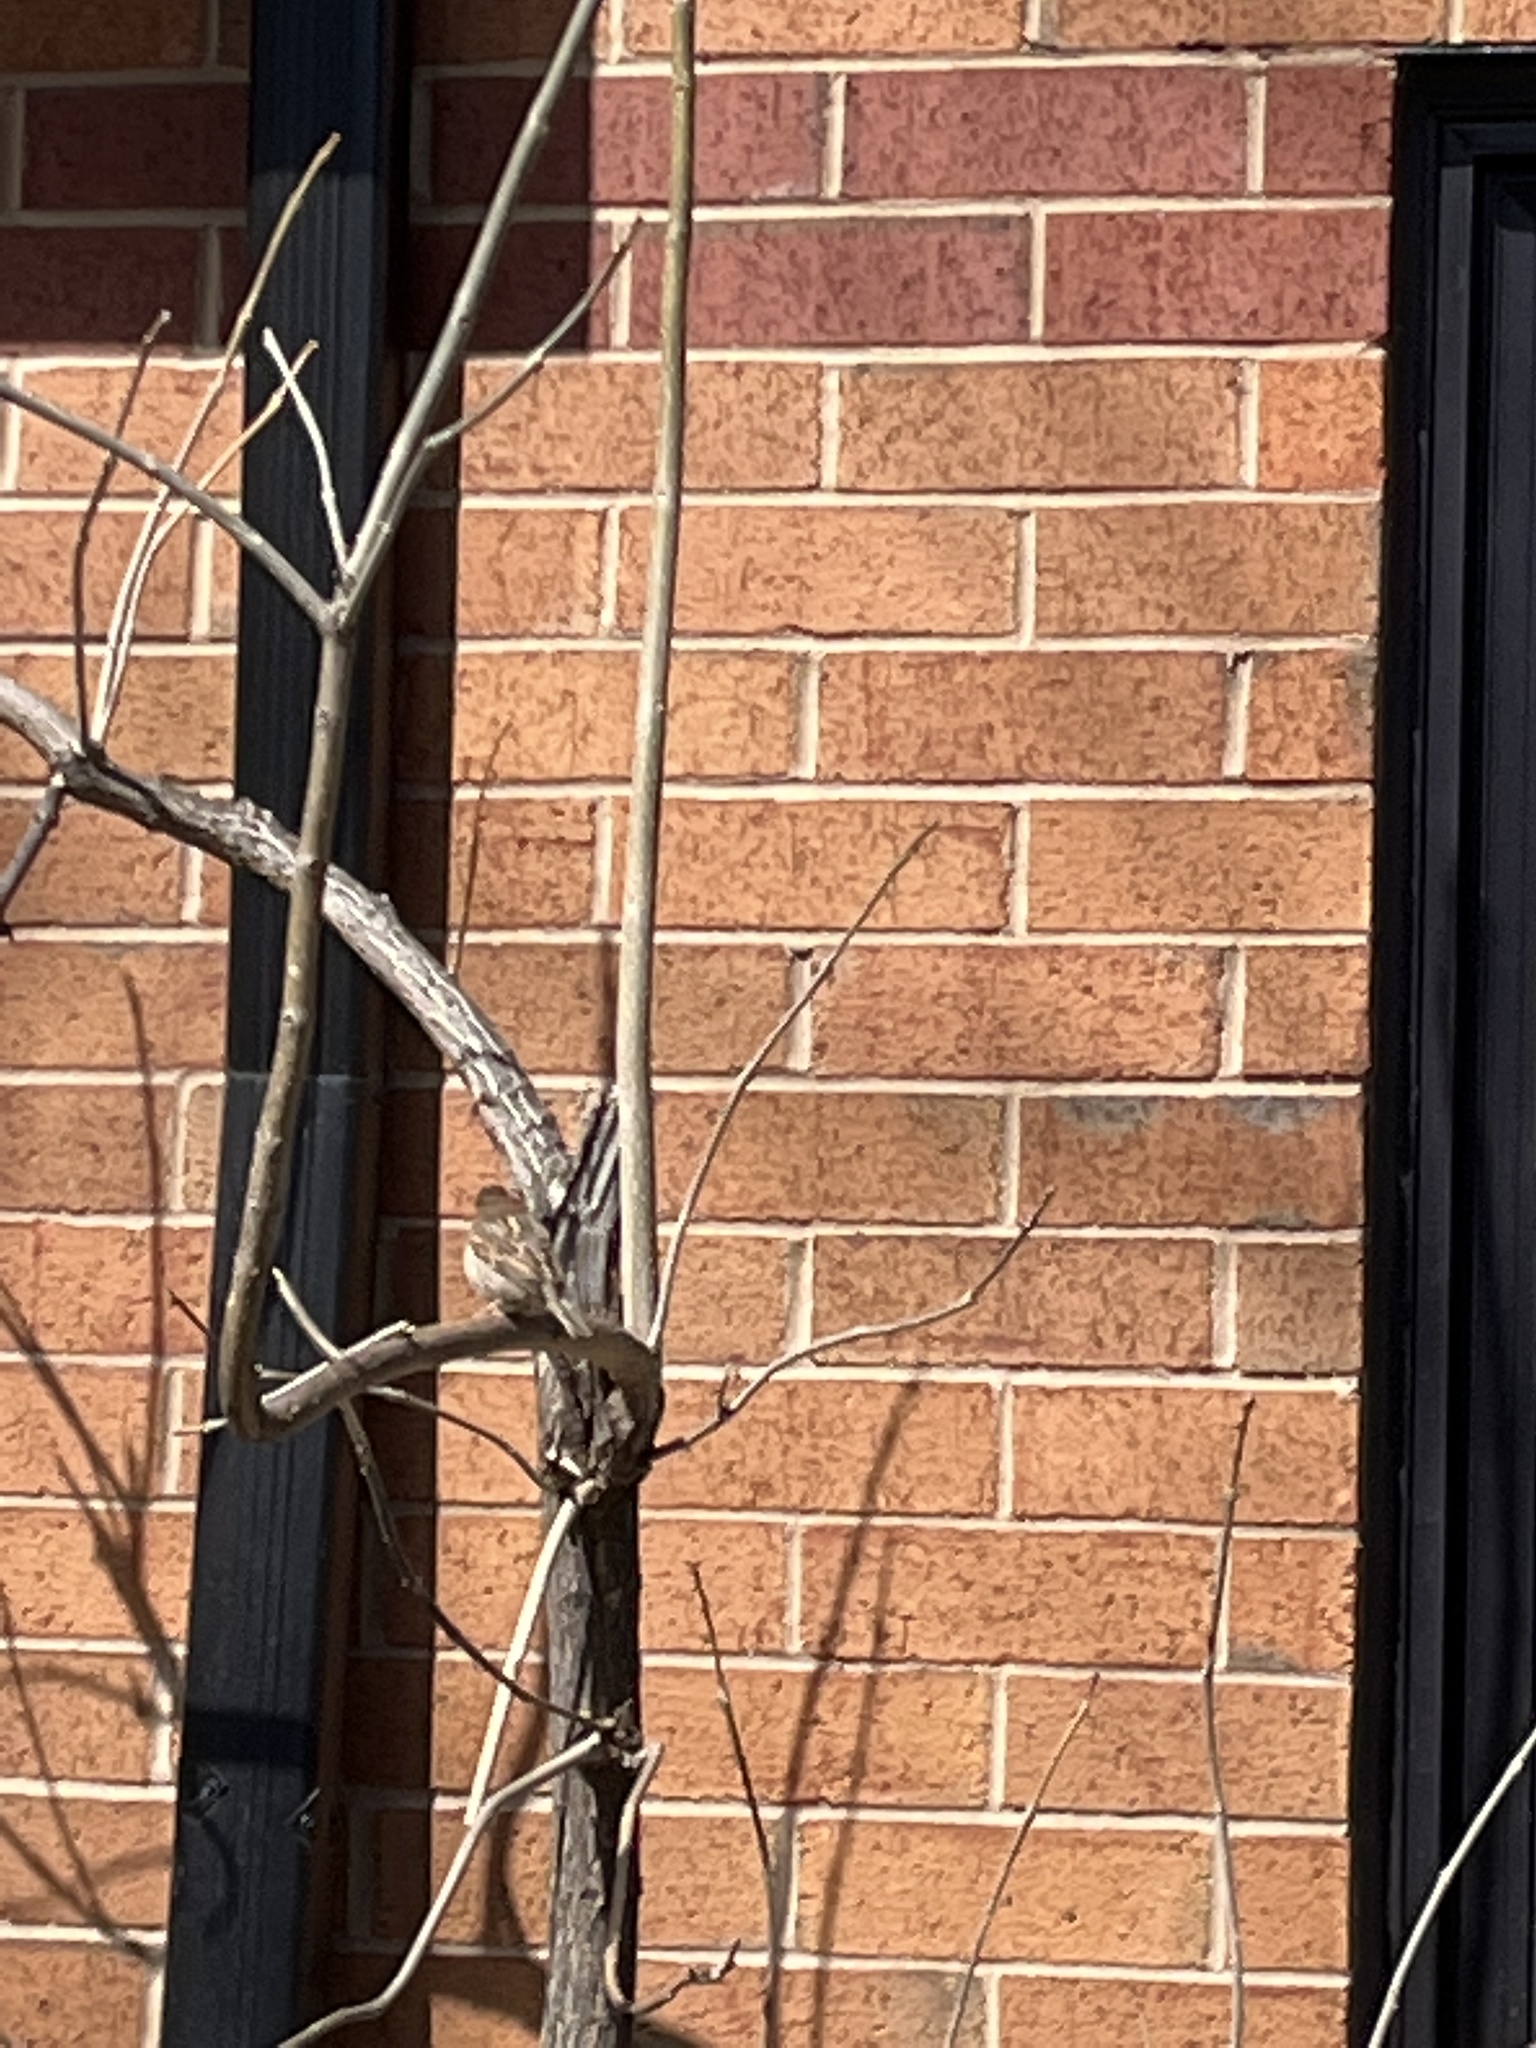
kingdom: Animalia
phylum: Chordata
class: Aves
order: Passeriformes
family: Passeridae
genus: Passer
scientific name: Passer domesticus
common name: House sparrow
